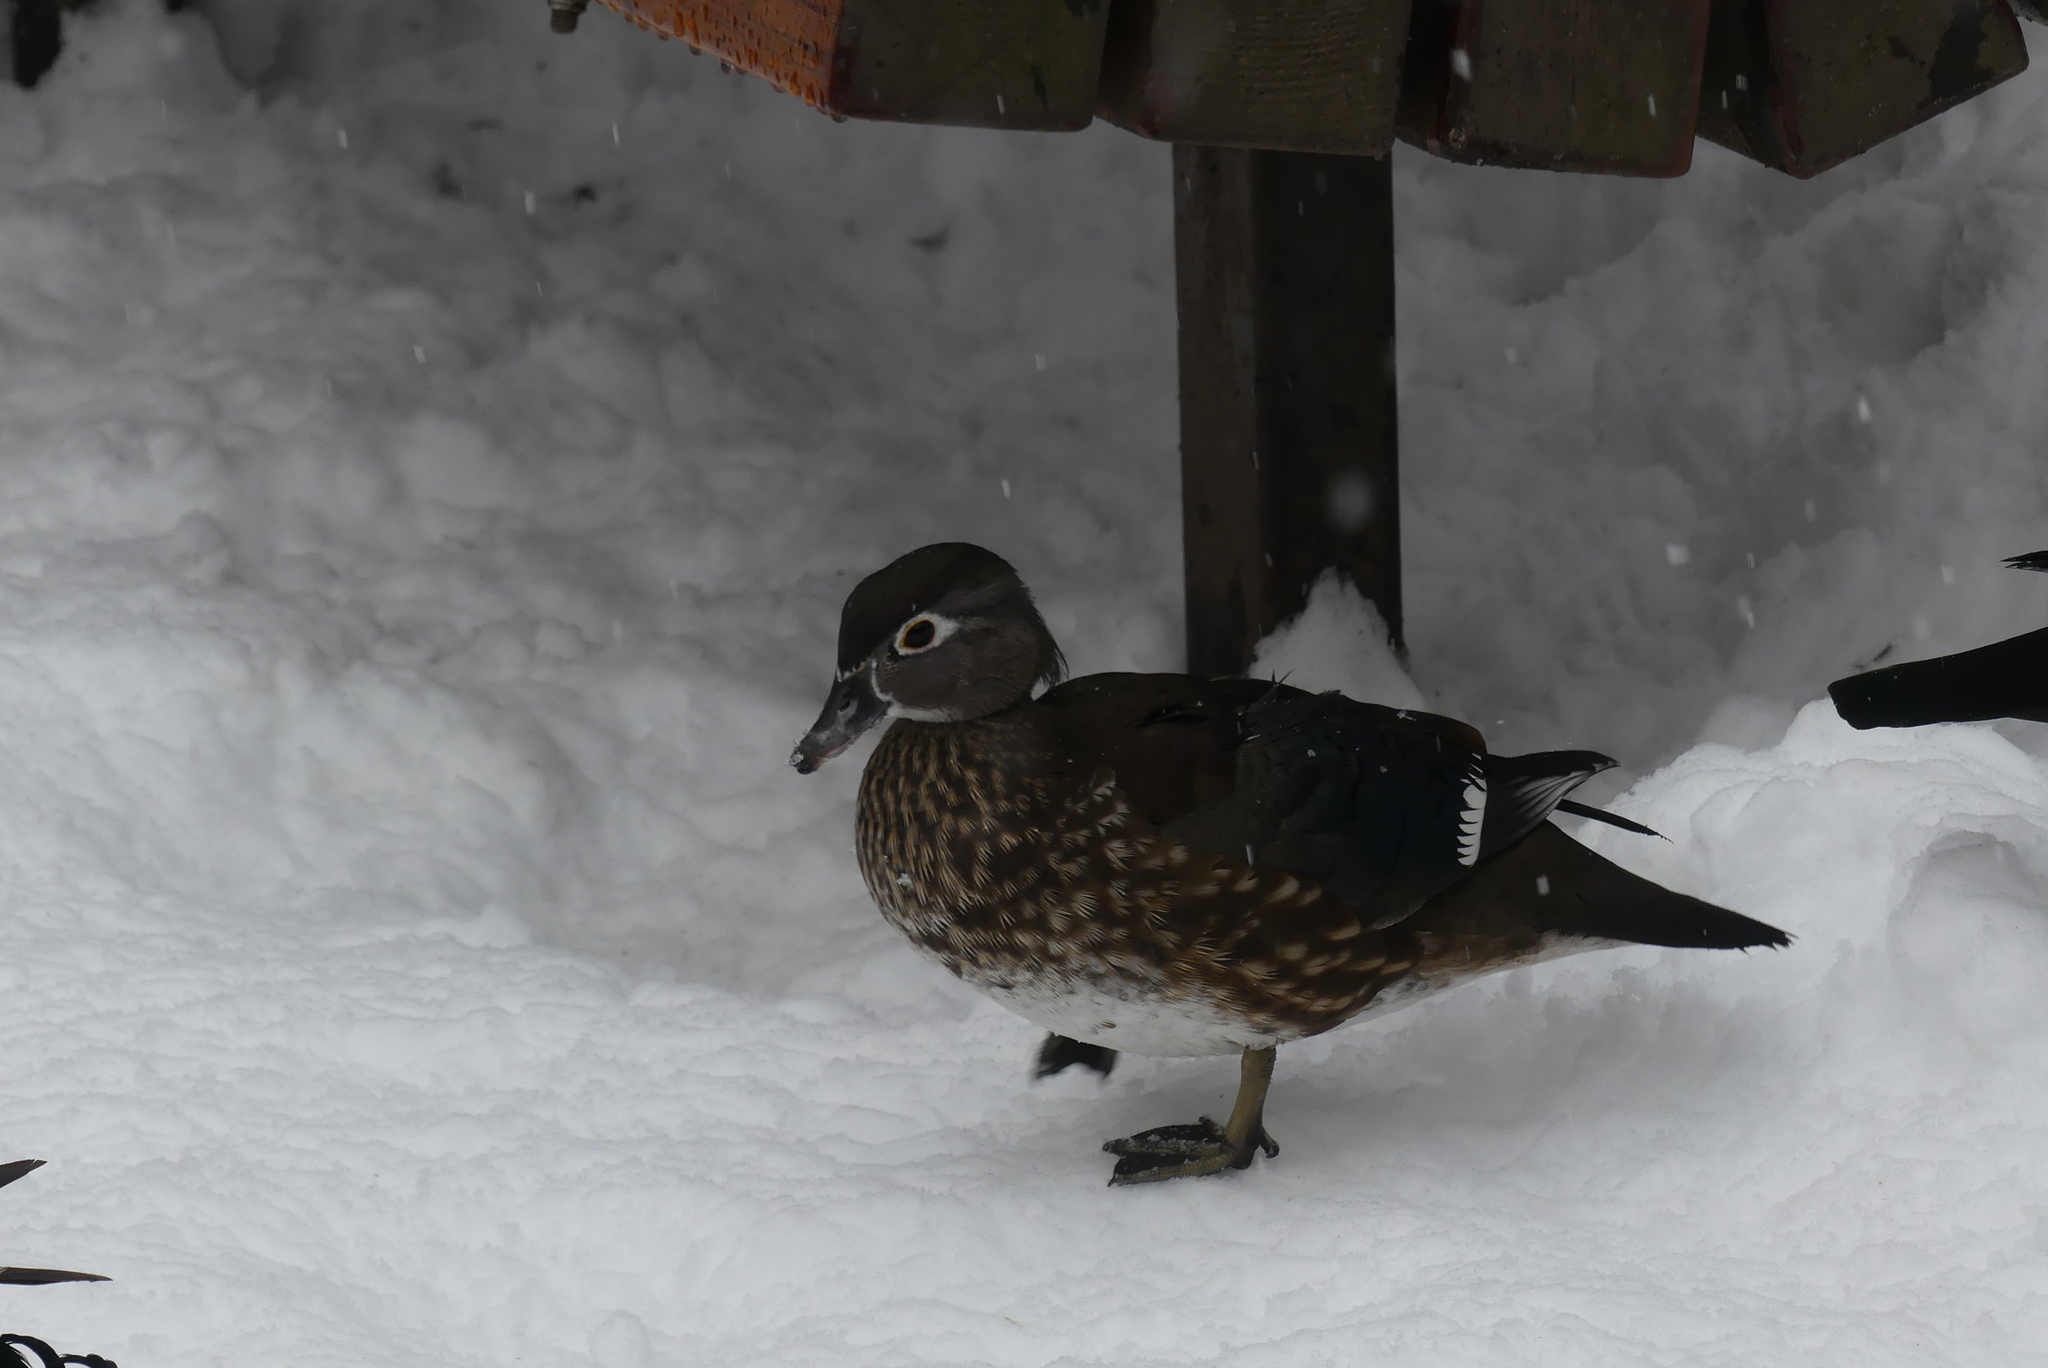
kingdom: Animalia
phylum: Chordata
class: Aves
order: Anseriformes
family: Anatidae
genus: Aix
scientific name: Aix sponsa
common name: Wood duck
